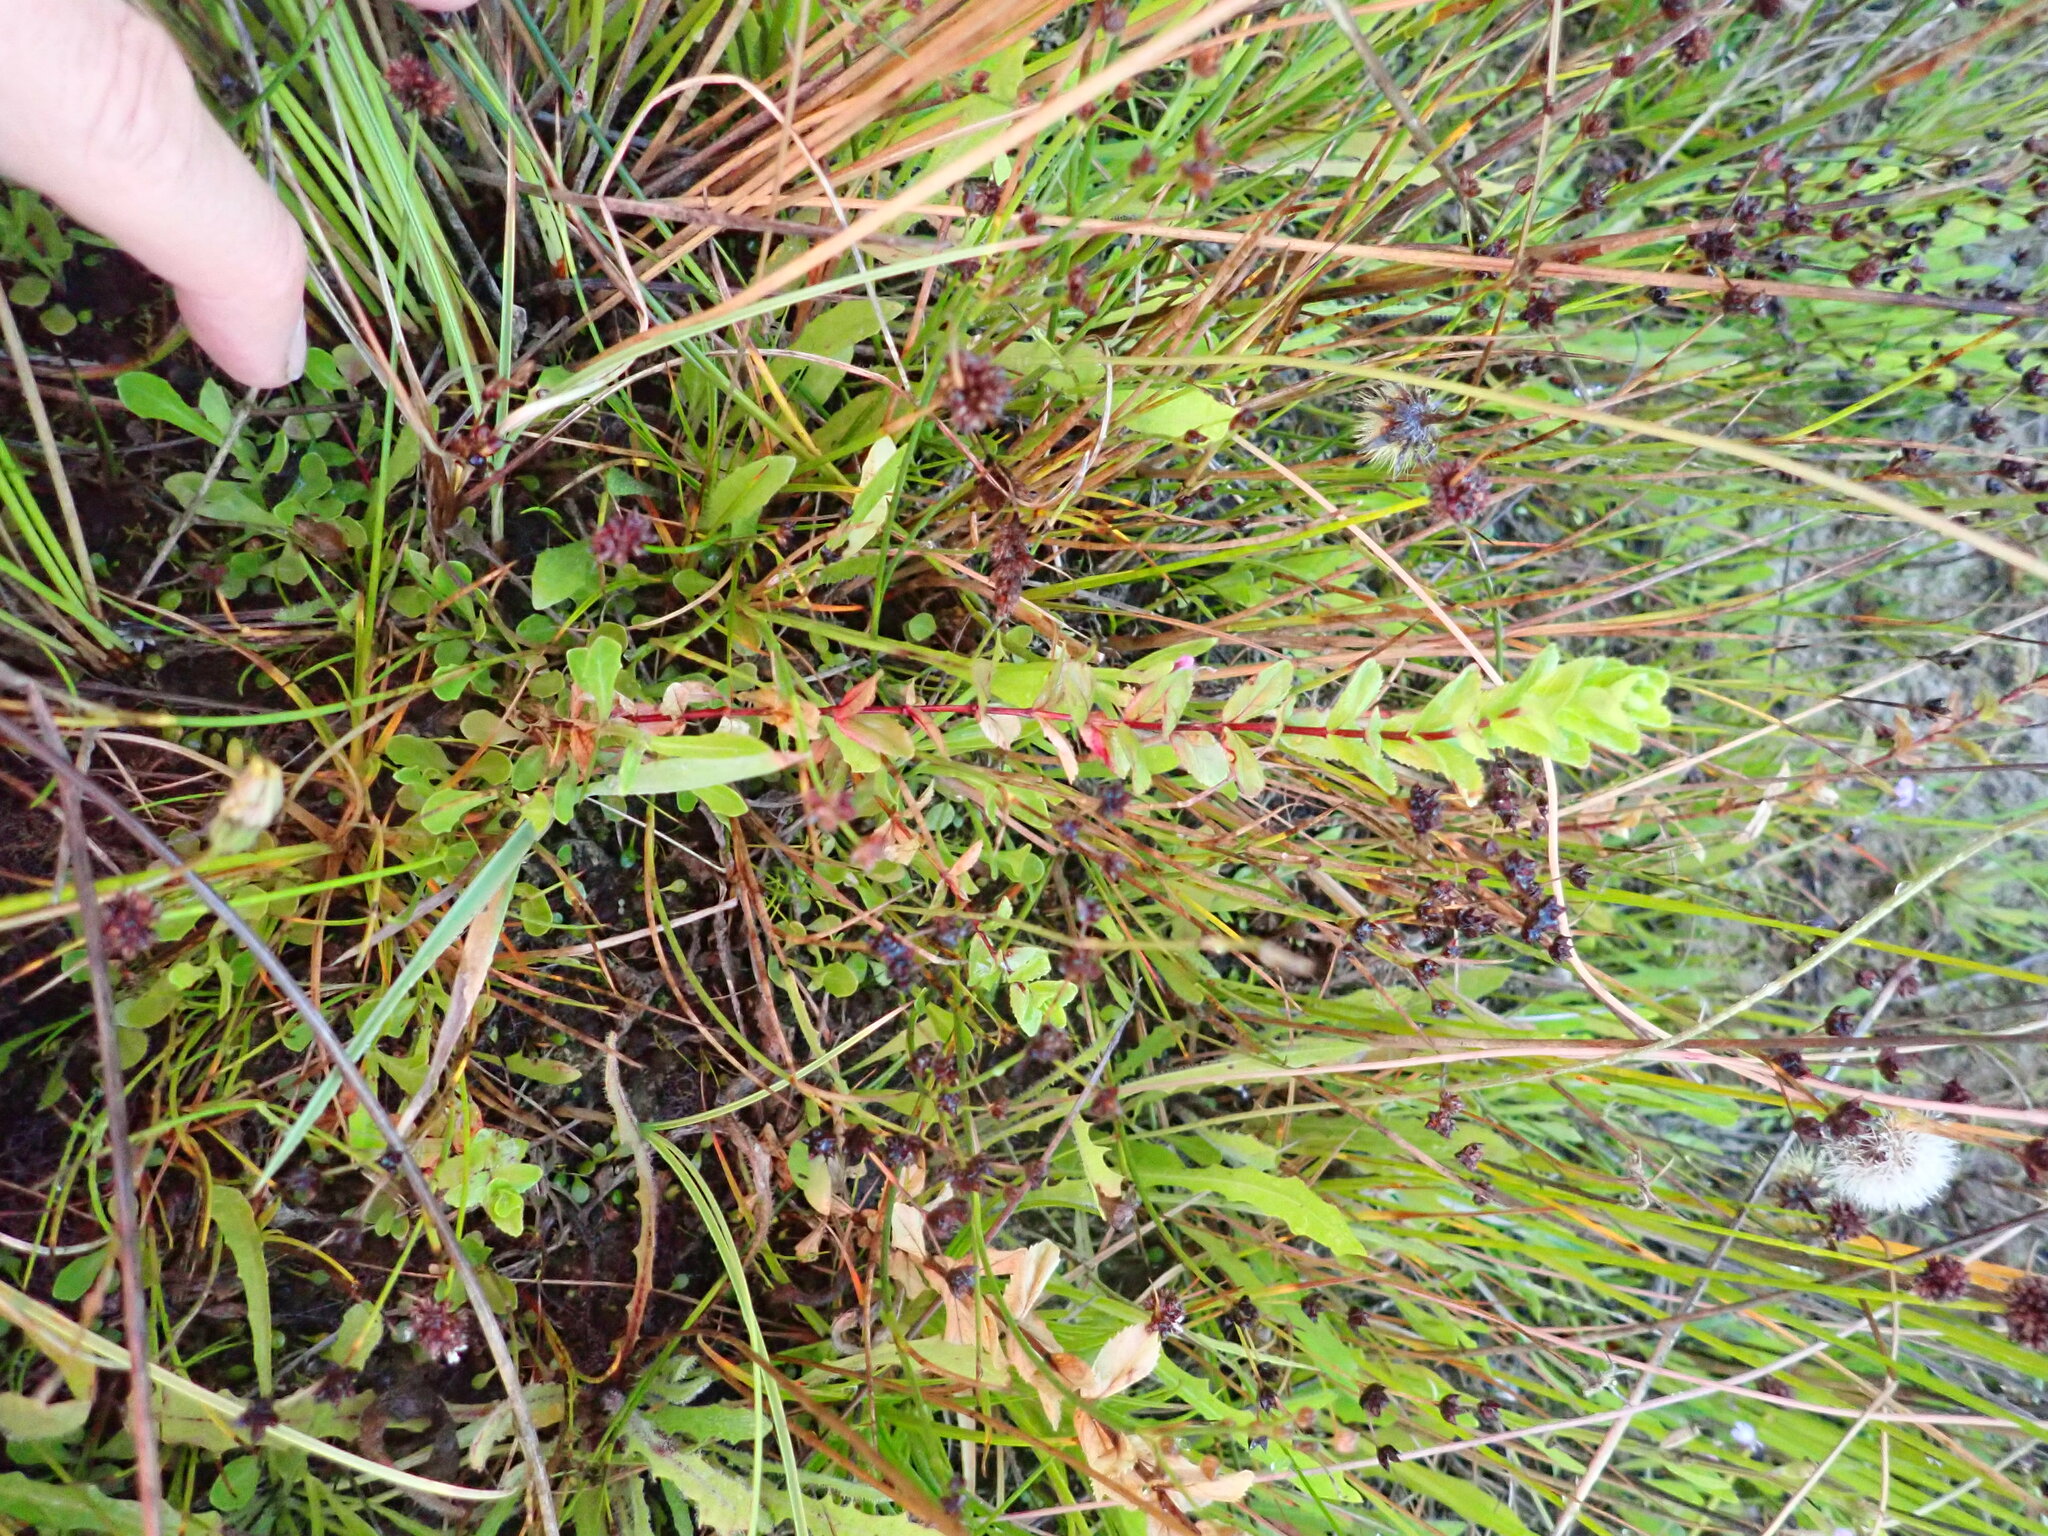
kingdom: Plantae
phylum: Tracheophyta
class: Magnoliopsida
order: Myrtales
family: Onagraceae
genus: Epilobium
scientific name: Epilobium billardiereanum
